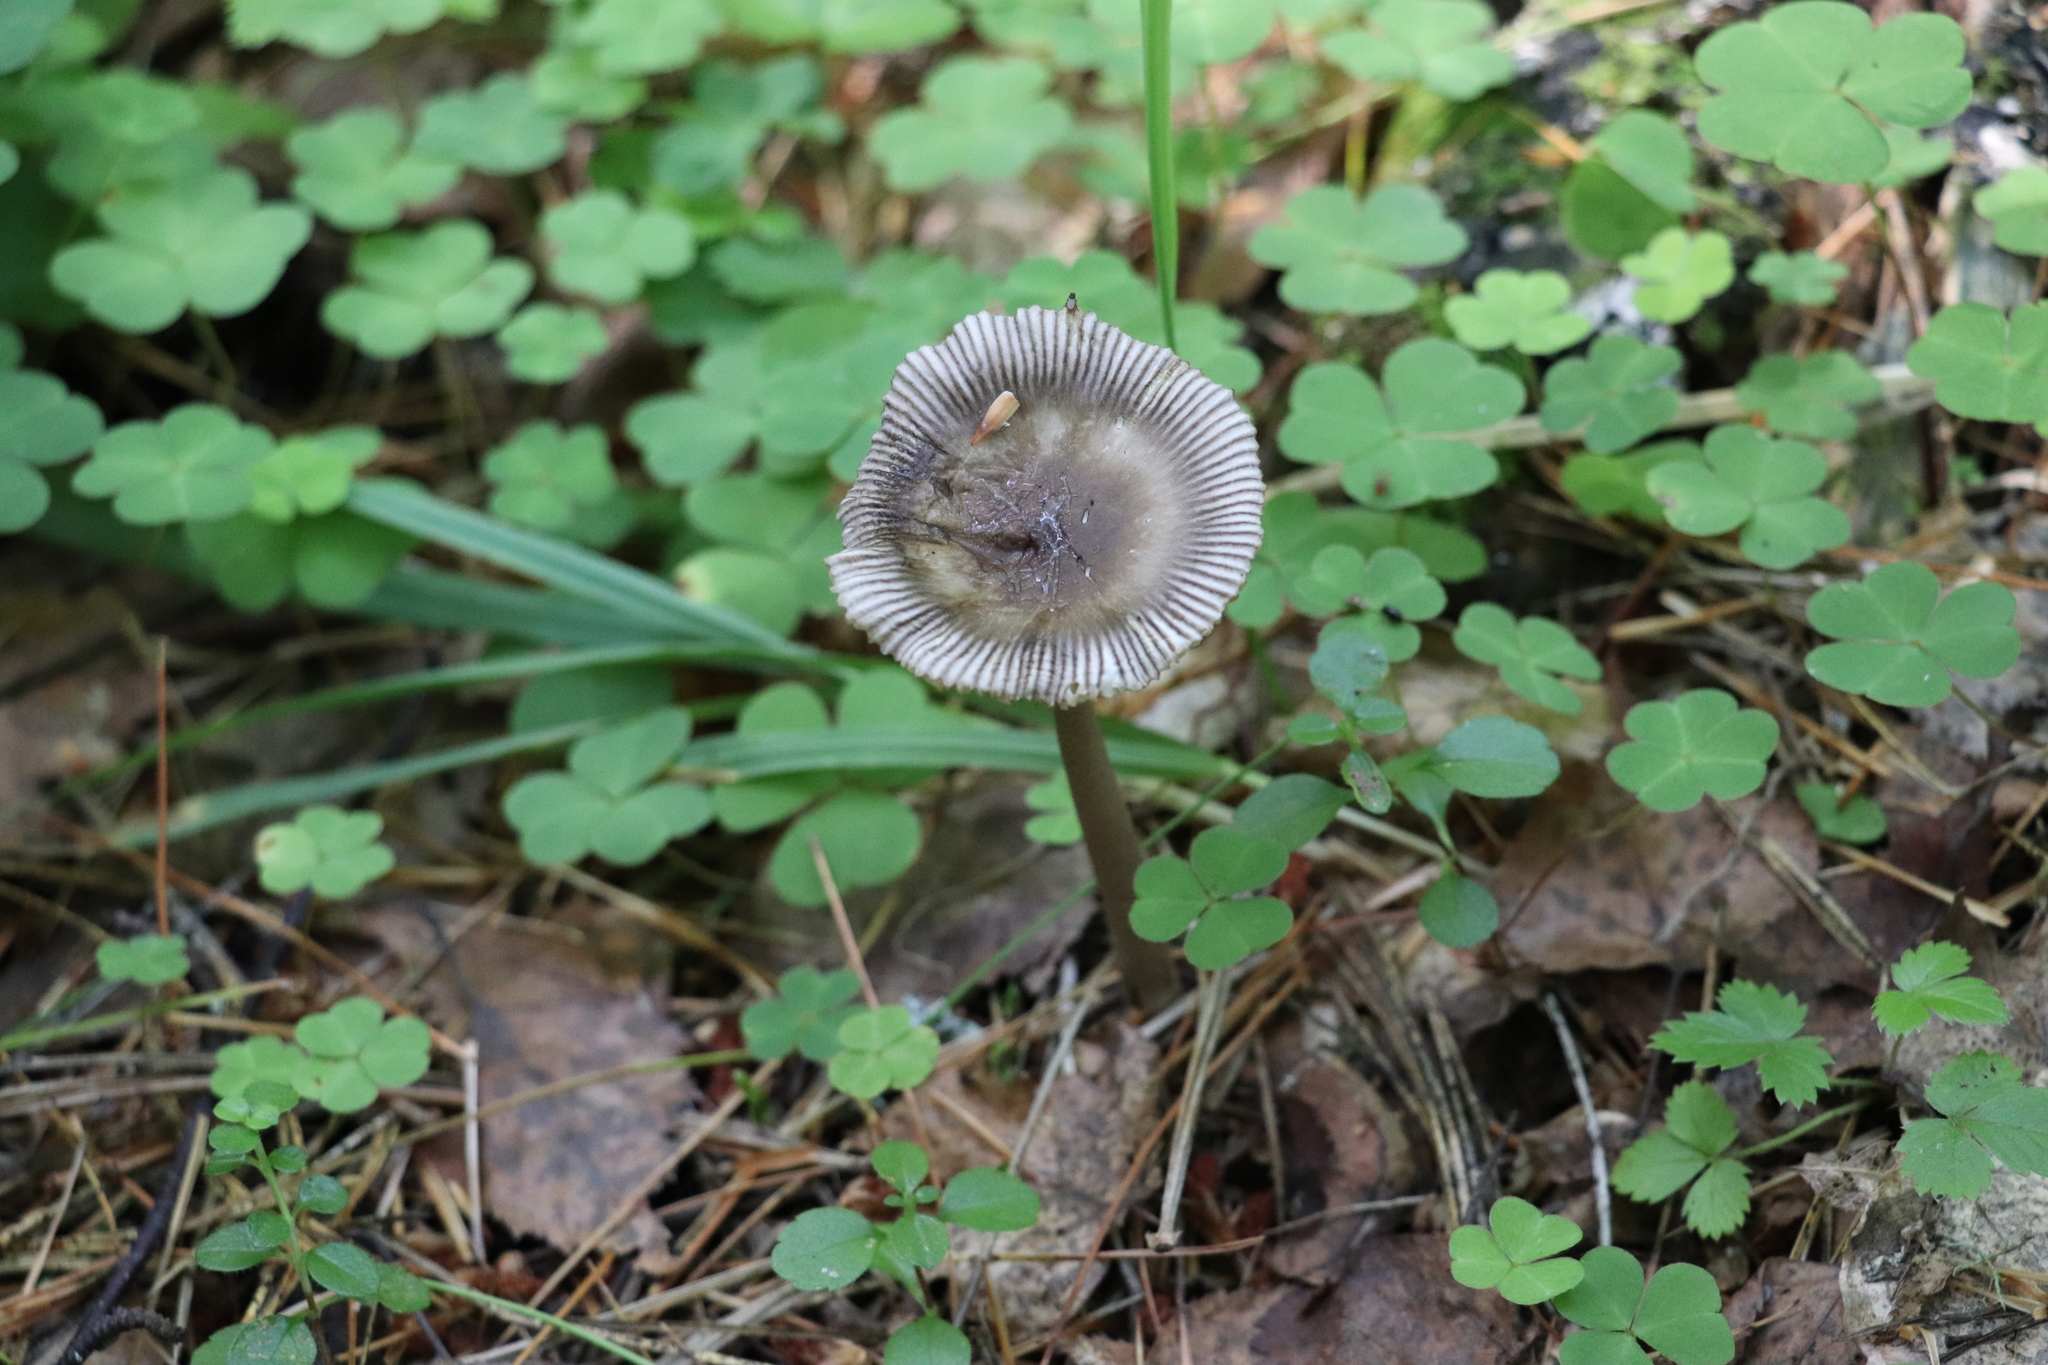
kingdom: Fungi
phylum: Basidiomycota
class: Agaricomycetes
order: Agaricales
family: Amanitaceae
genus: Amanita
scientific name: Amanita battarrae
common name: Banded amanita
